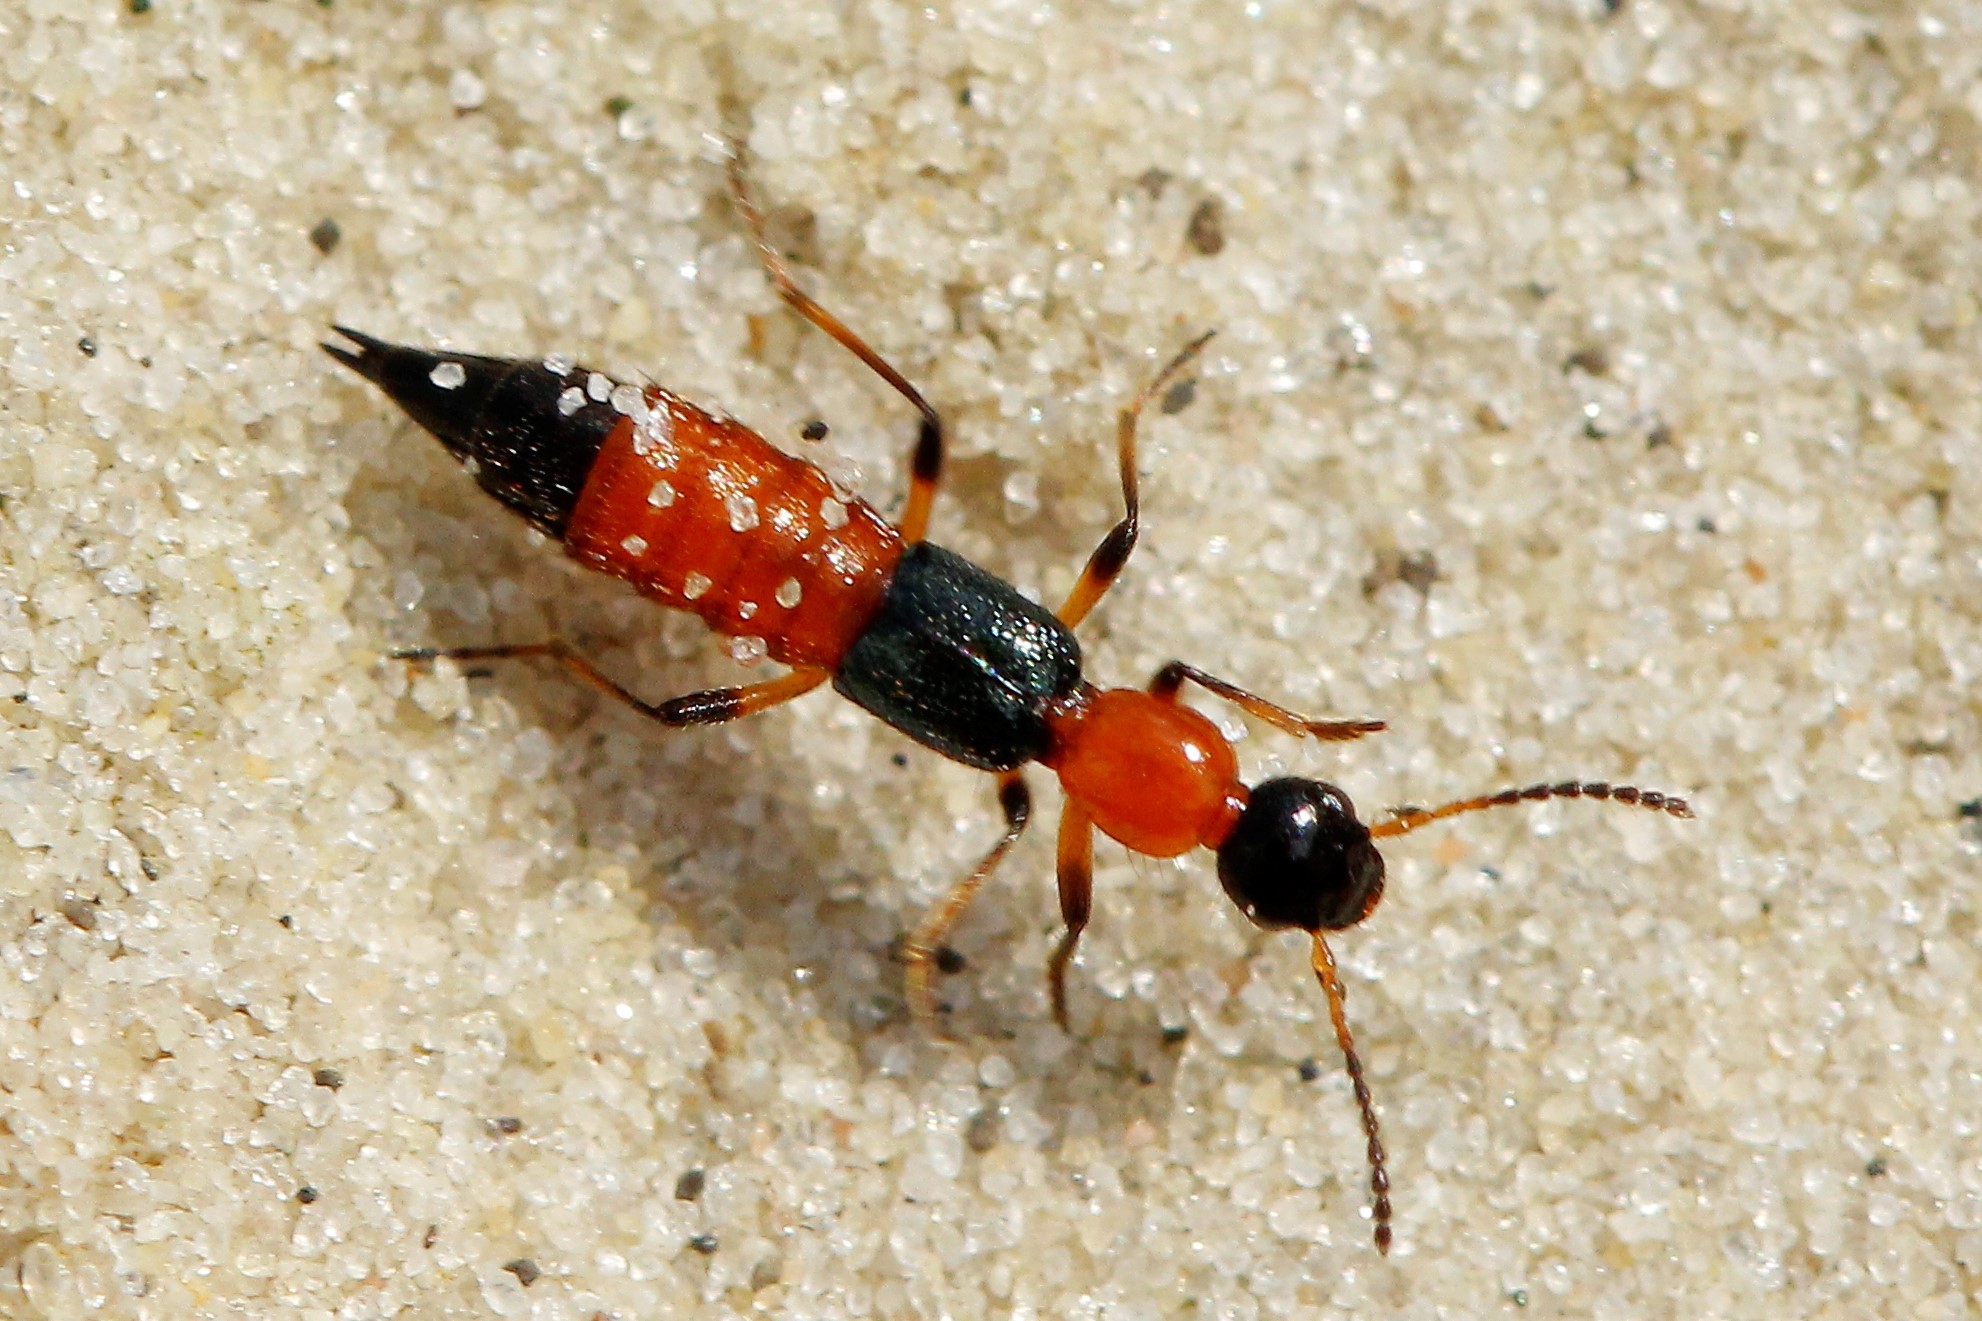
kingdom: Animalia
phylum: Arthropoda
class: Insecta
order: Coleoptera
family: Staphylinidae
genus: Paederus
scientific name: Paederus limnophilus
